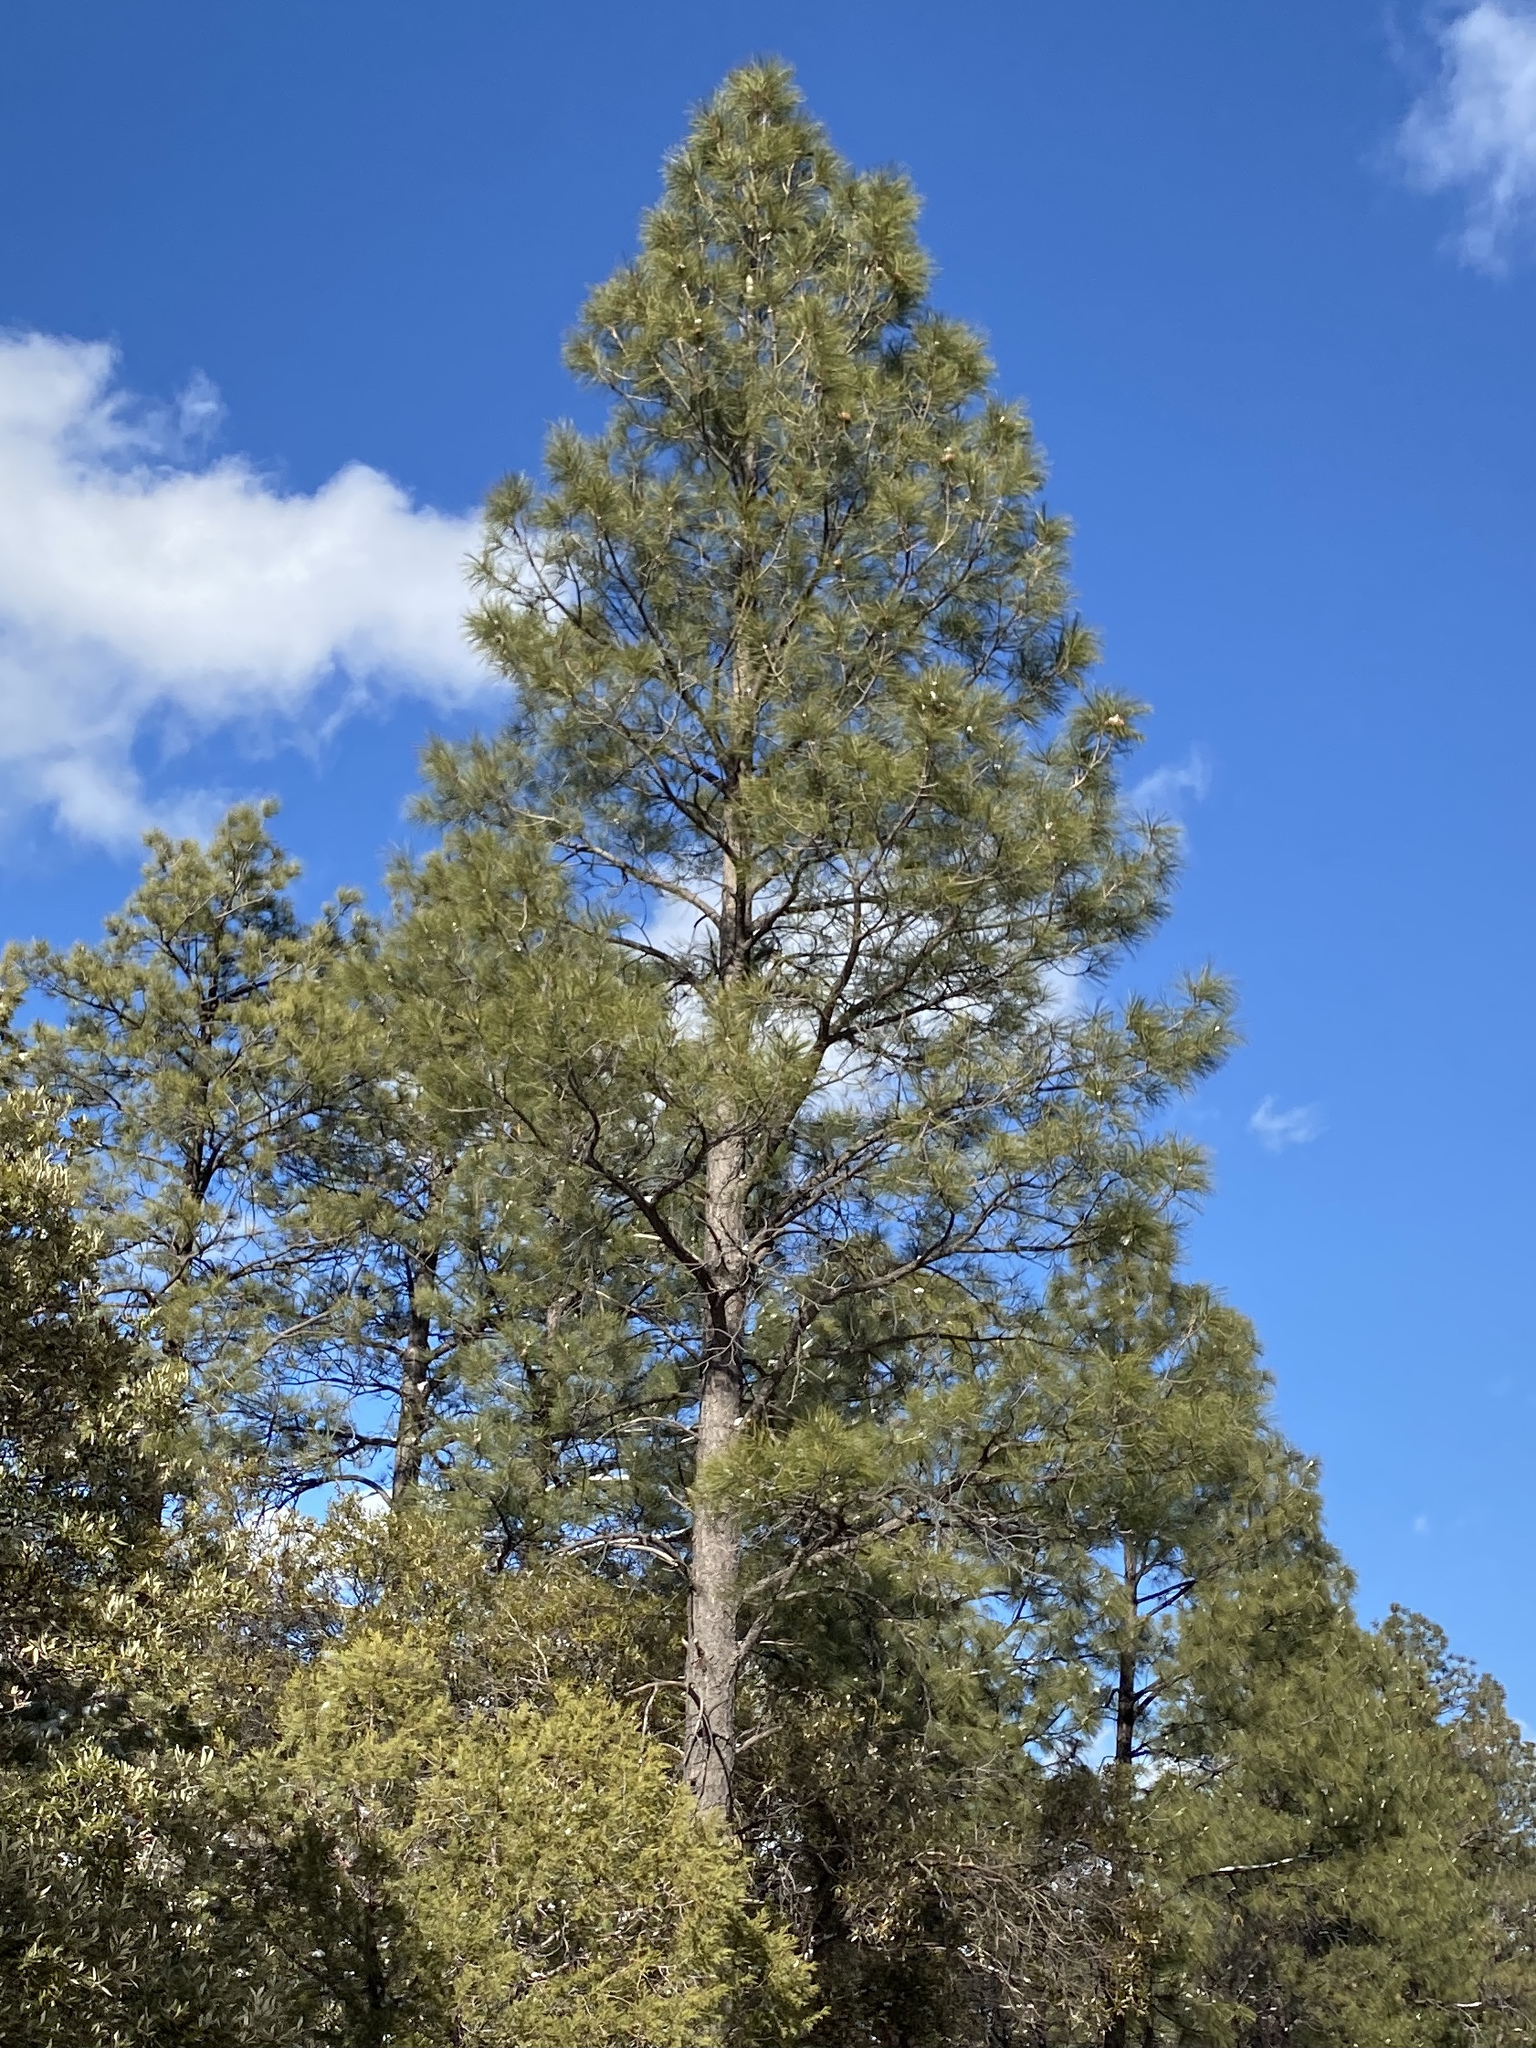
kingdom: Plantae
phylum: Tracheophyta
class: Pinopsida
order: Pinales
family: Pinaceae
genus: Pinus
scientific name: Pinus ponderosa
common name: Western yellow-pine
